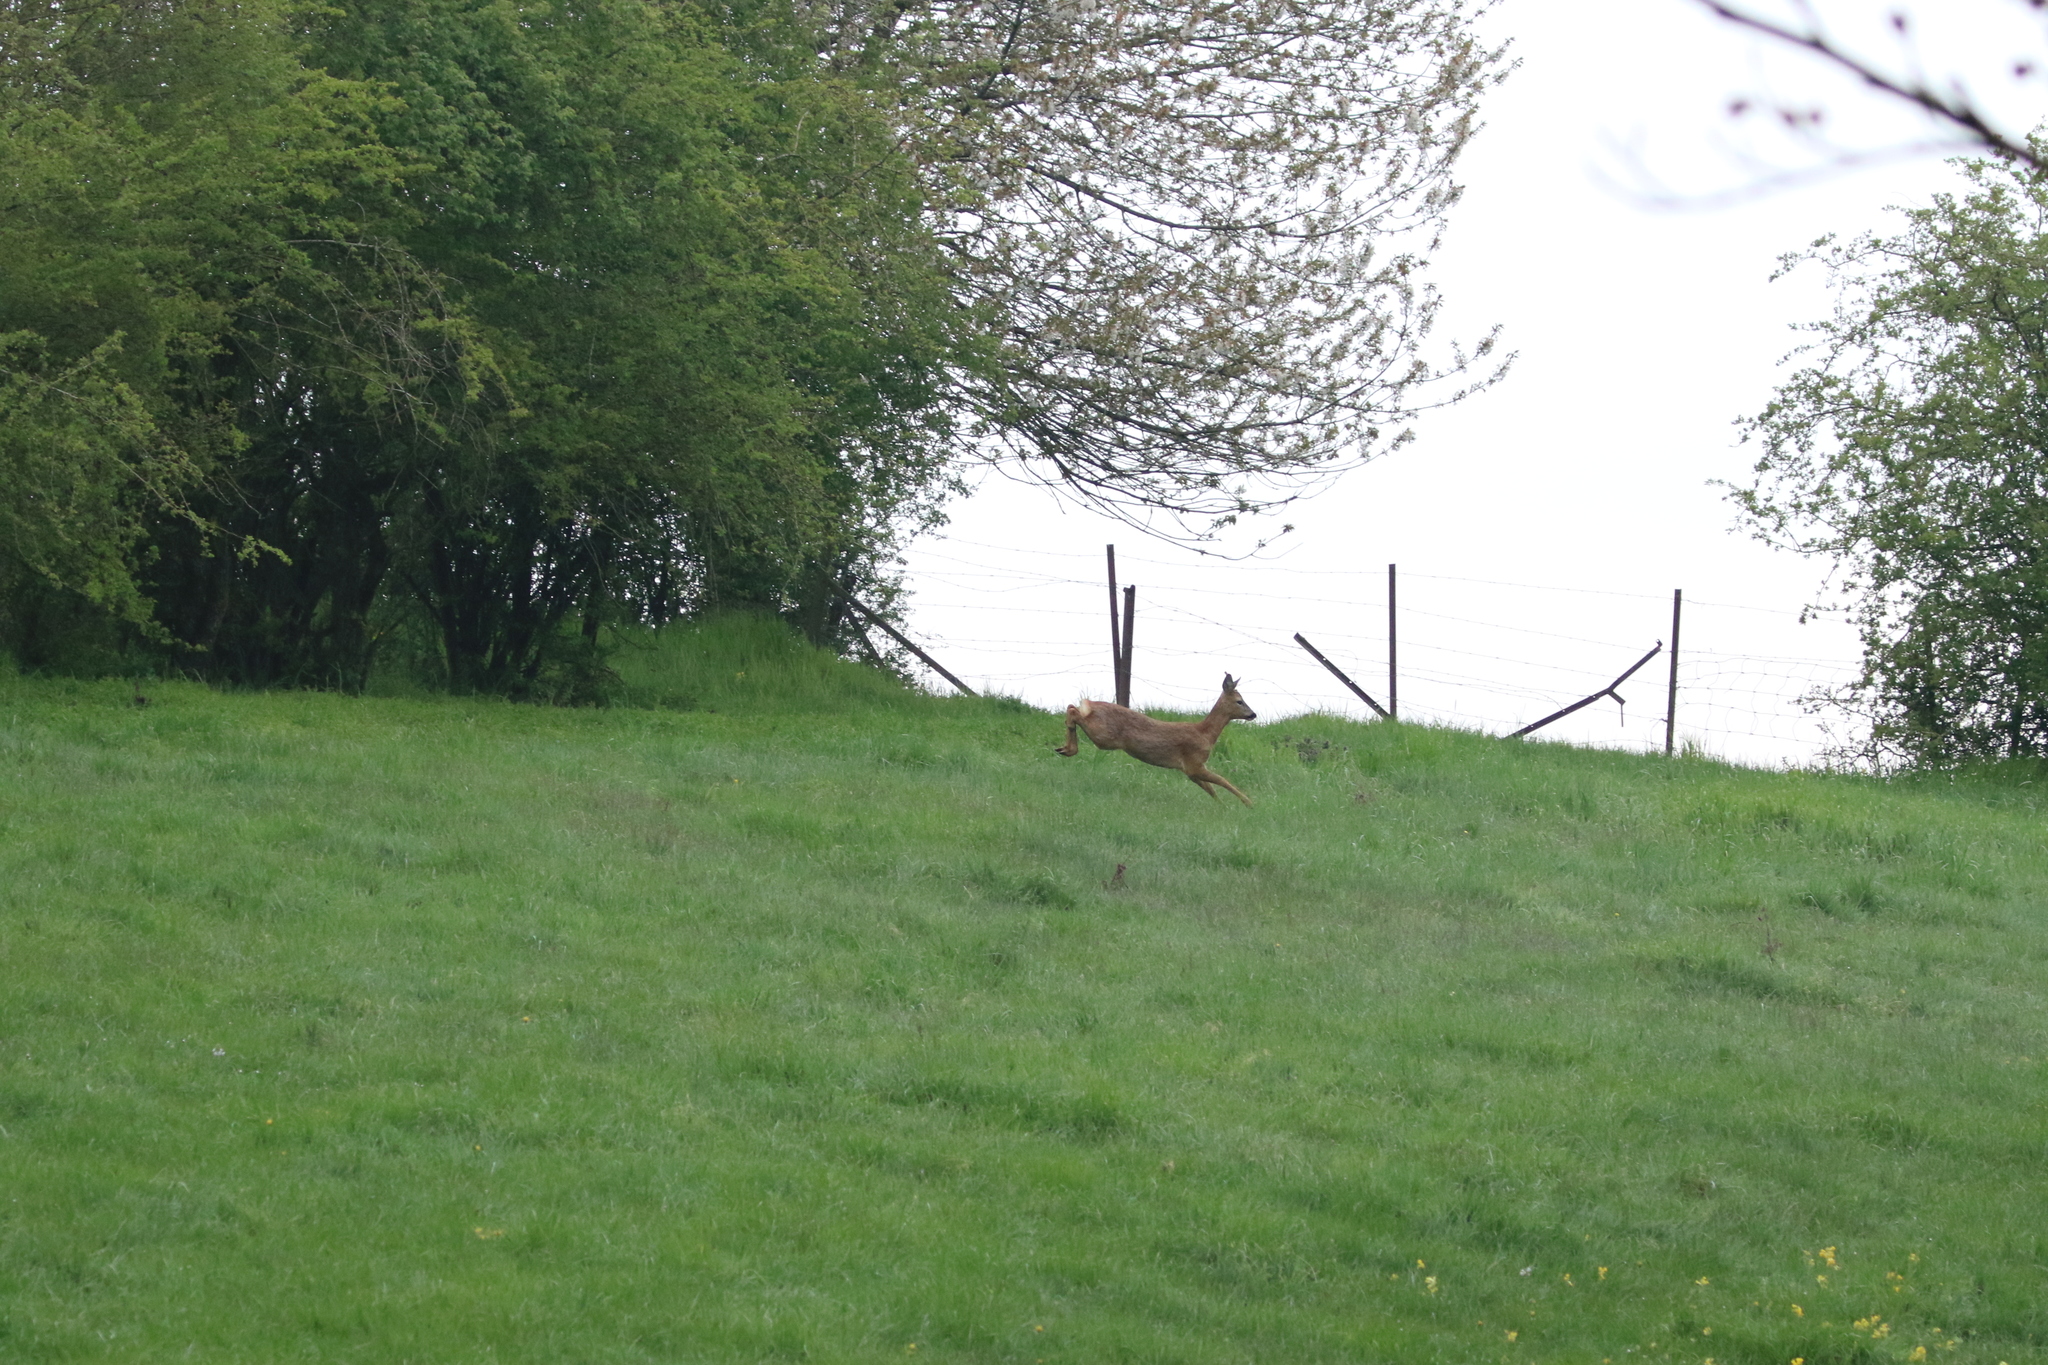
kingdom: Animalia
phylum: Chordata
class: Mammalia
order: Artiodactyla
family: Cervidae
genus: Capreolus
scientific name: Capreolus capreolus
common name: Western roe deer
